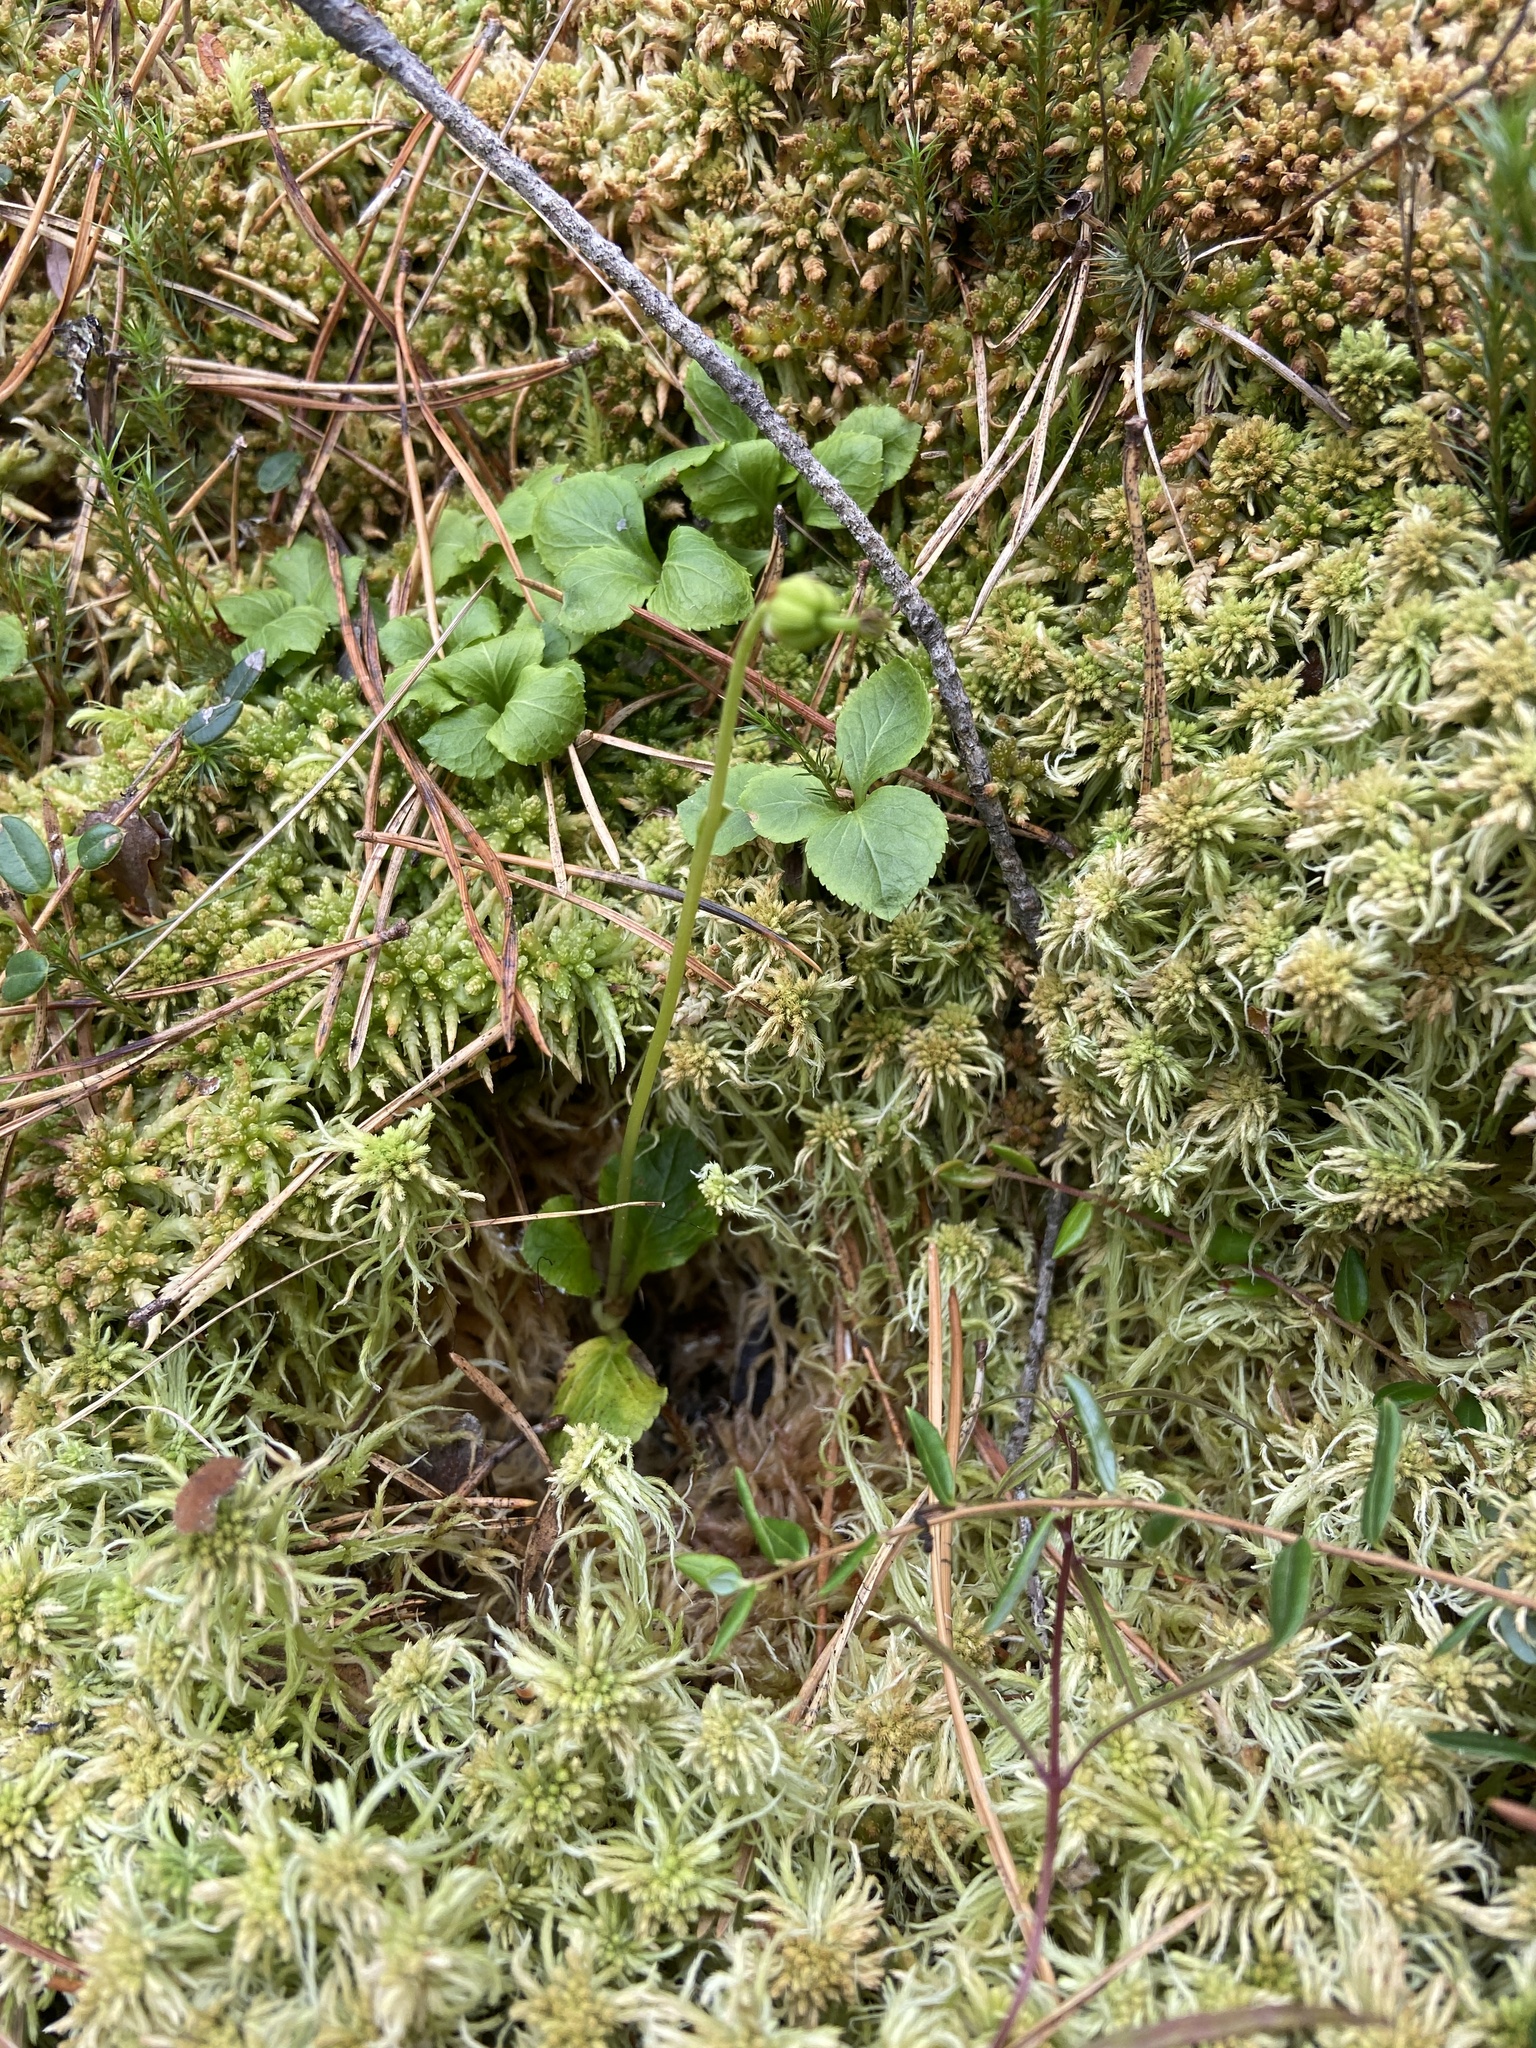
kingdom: Plantae
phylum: Tracheophyta
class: Magnoliopsida
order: Ericales
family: Ericaceae
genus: Moneses
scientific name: Moneses uniflora
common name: One-flowered wintergreen
